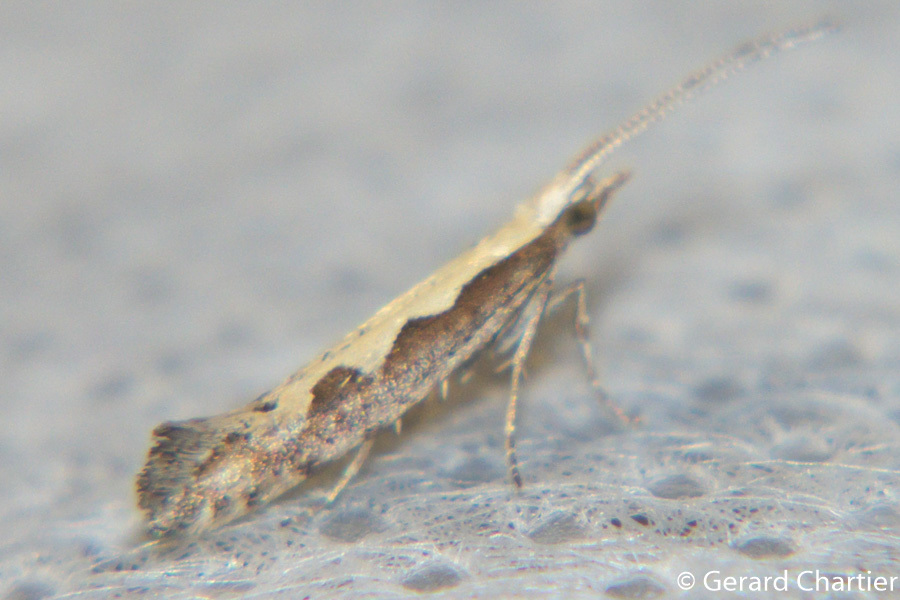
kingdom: Animalia
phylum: Arthropoda
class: Insecta
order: Lepidoptera
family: Plutellidae
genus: Plutella
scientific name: Plutella xylostella
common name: Diamond-back moth
